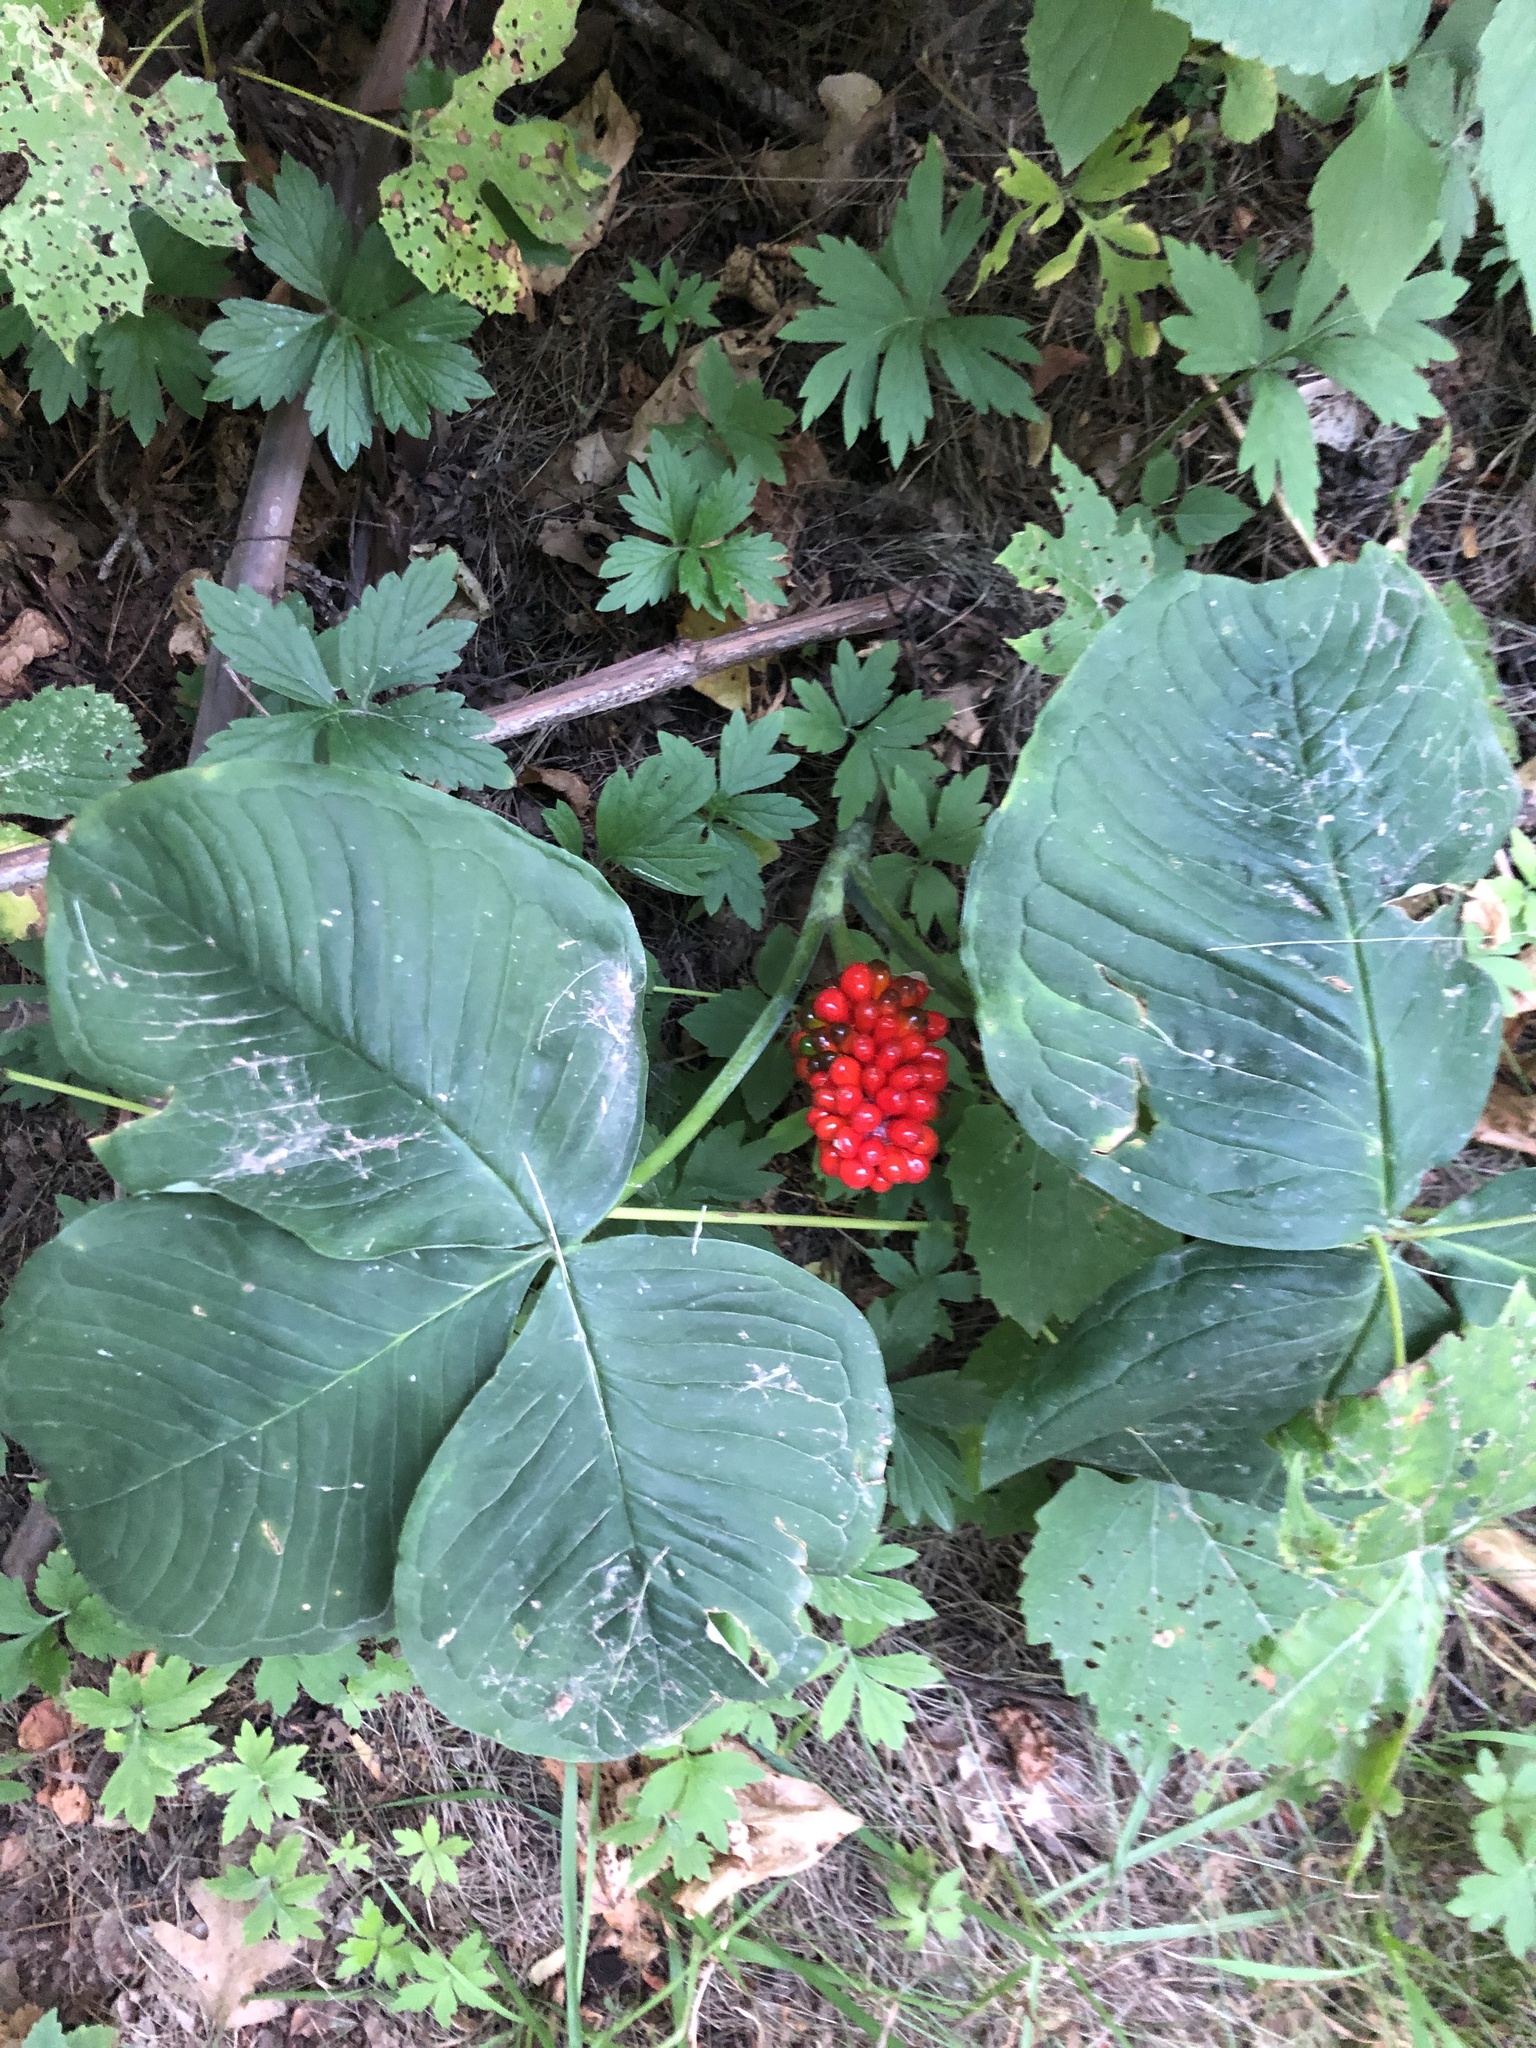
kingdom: Plantae
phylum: Tracheophyta
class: Liliopsida
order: Alismatales
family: Araceae
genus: Arisaema
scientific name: Arisaema triphyllum
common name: Jack-in-the-pulpit
